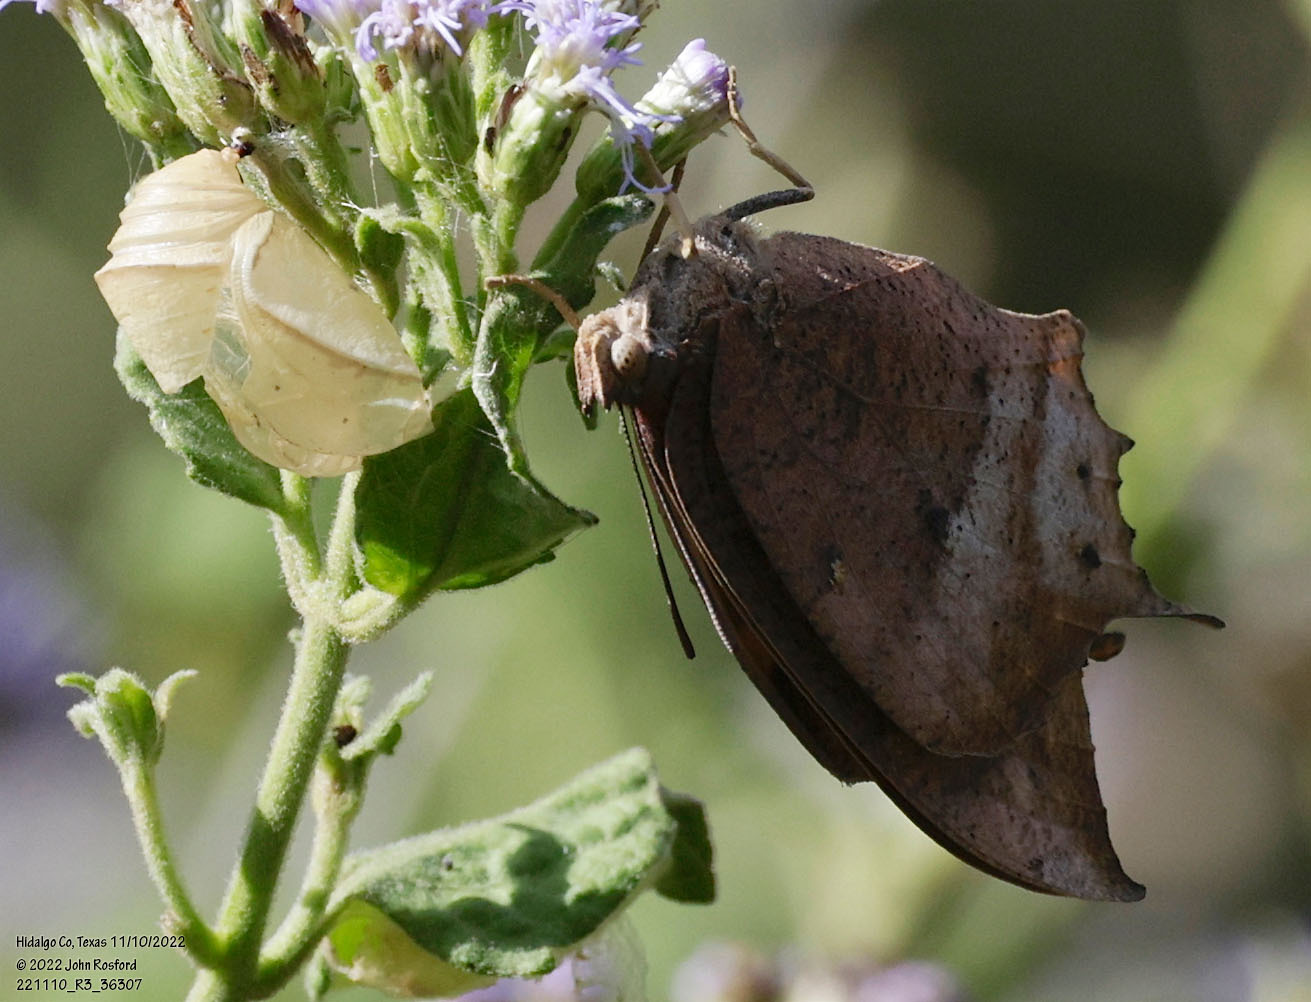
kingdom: Animalia
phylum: Arthropoda
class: Insecta
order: Lepidoptera
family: Nymphalidae
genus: Anaea
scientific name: Anaea aidea
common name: Tropical leafwing
